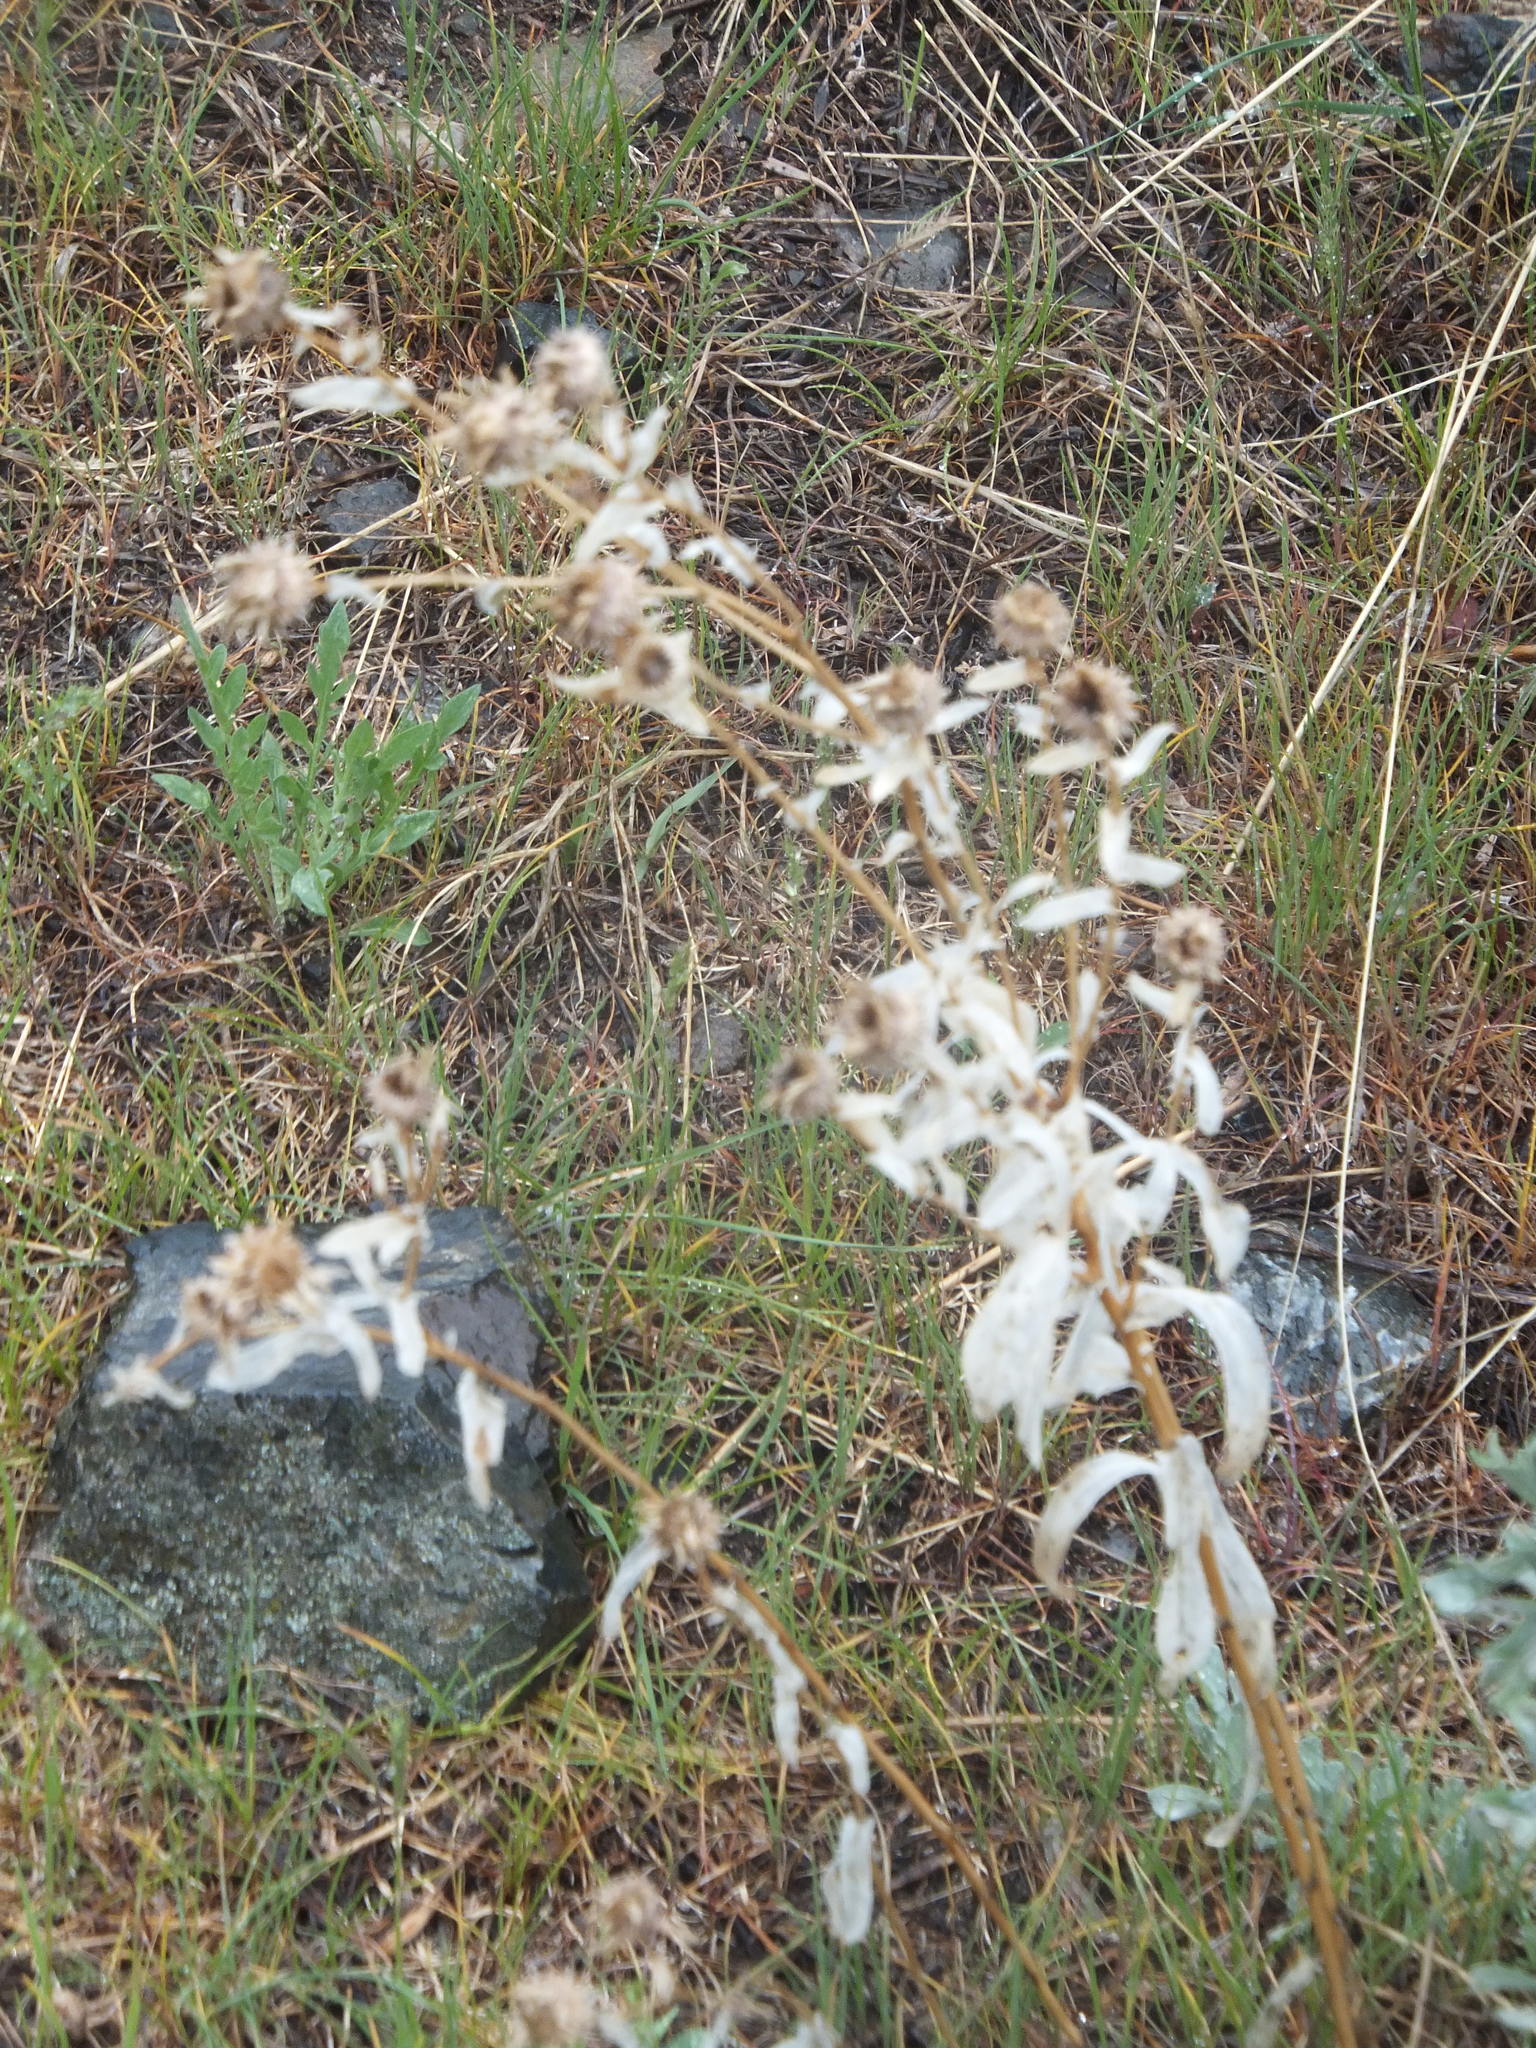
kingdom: Plantae
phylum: Tracheophyta
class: Magnoliopsida
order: Asterales
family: Asteraceae
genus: Grindelia
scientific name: Grindelia squarrosa
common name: Curly-cup gumweed
